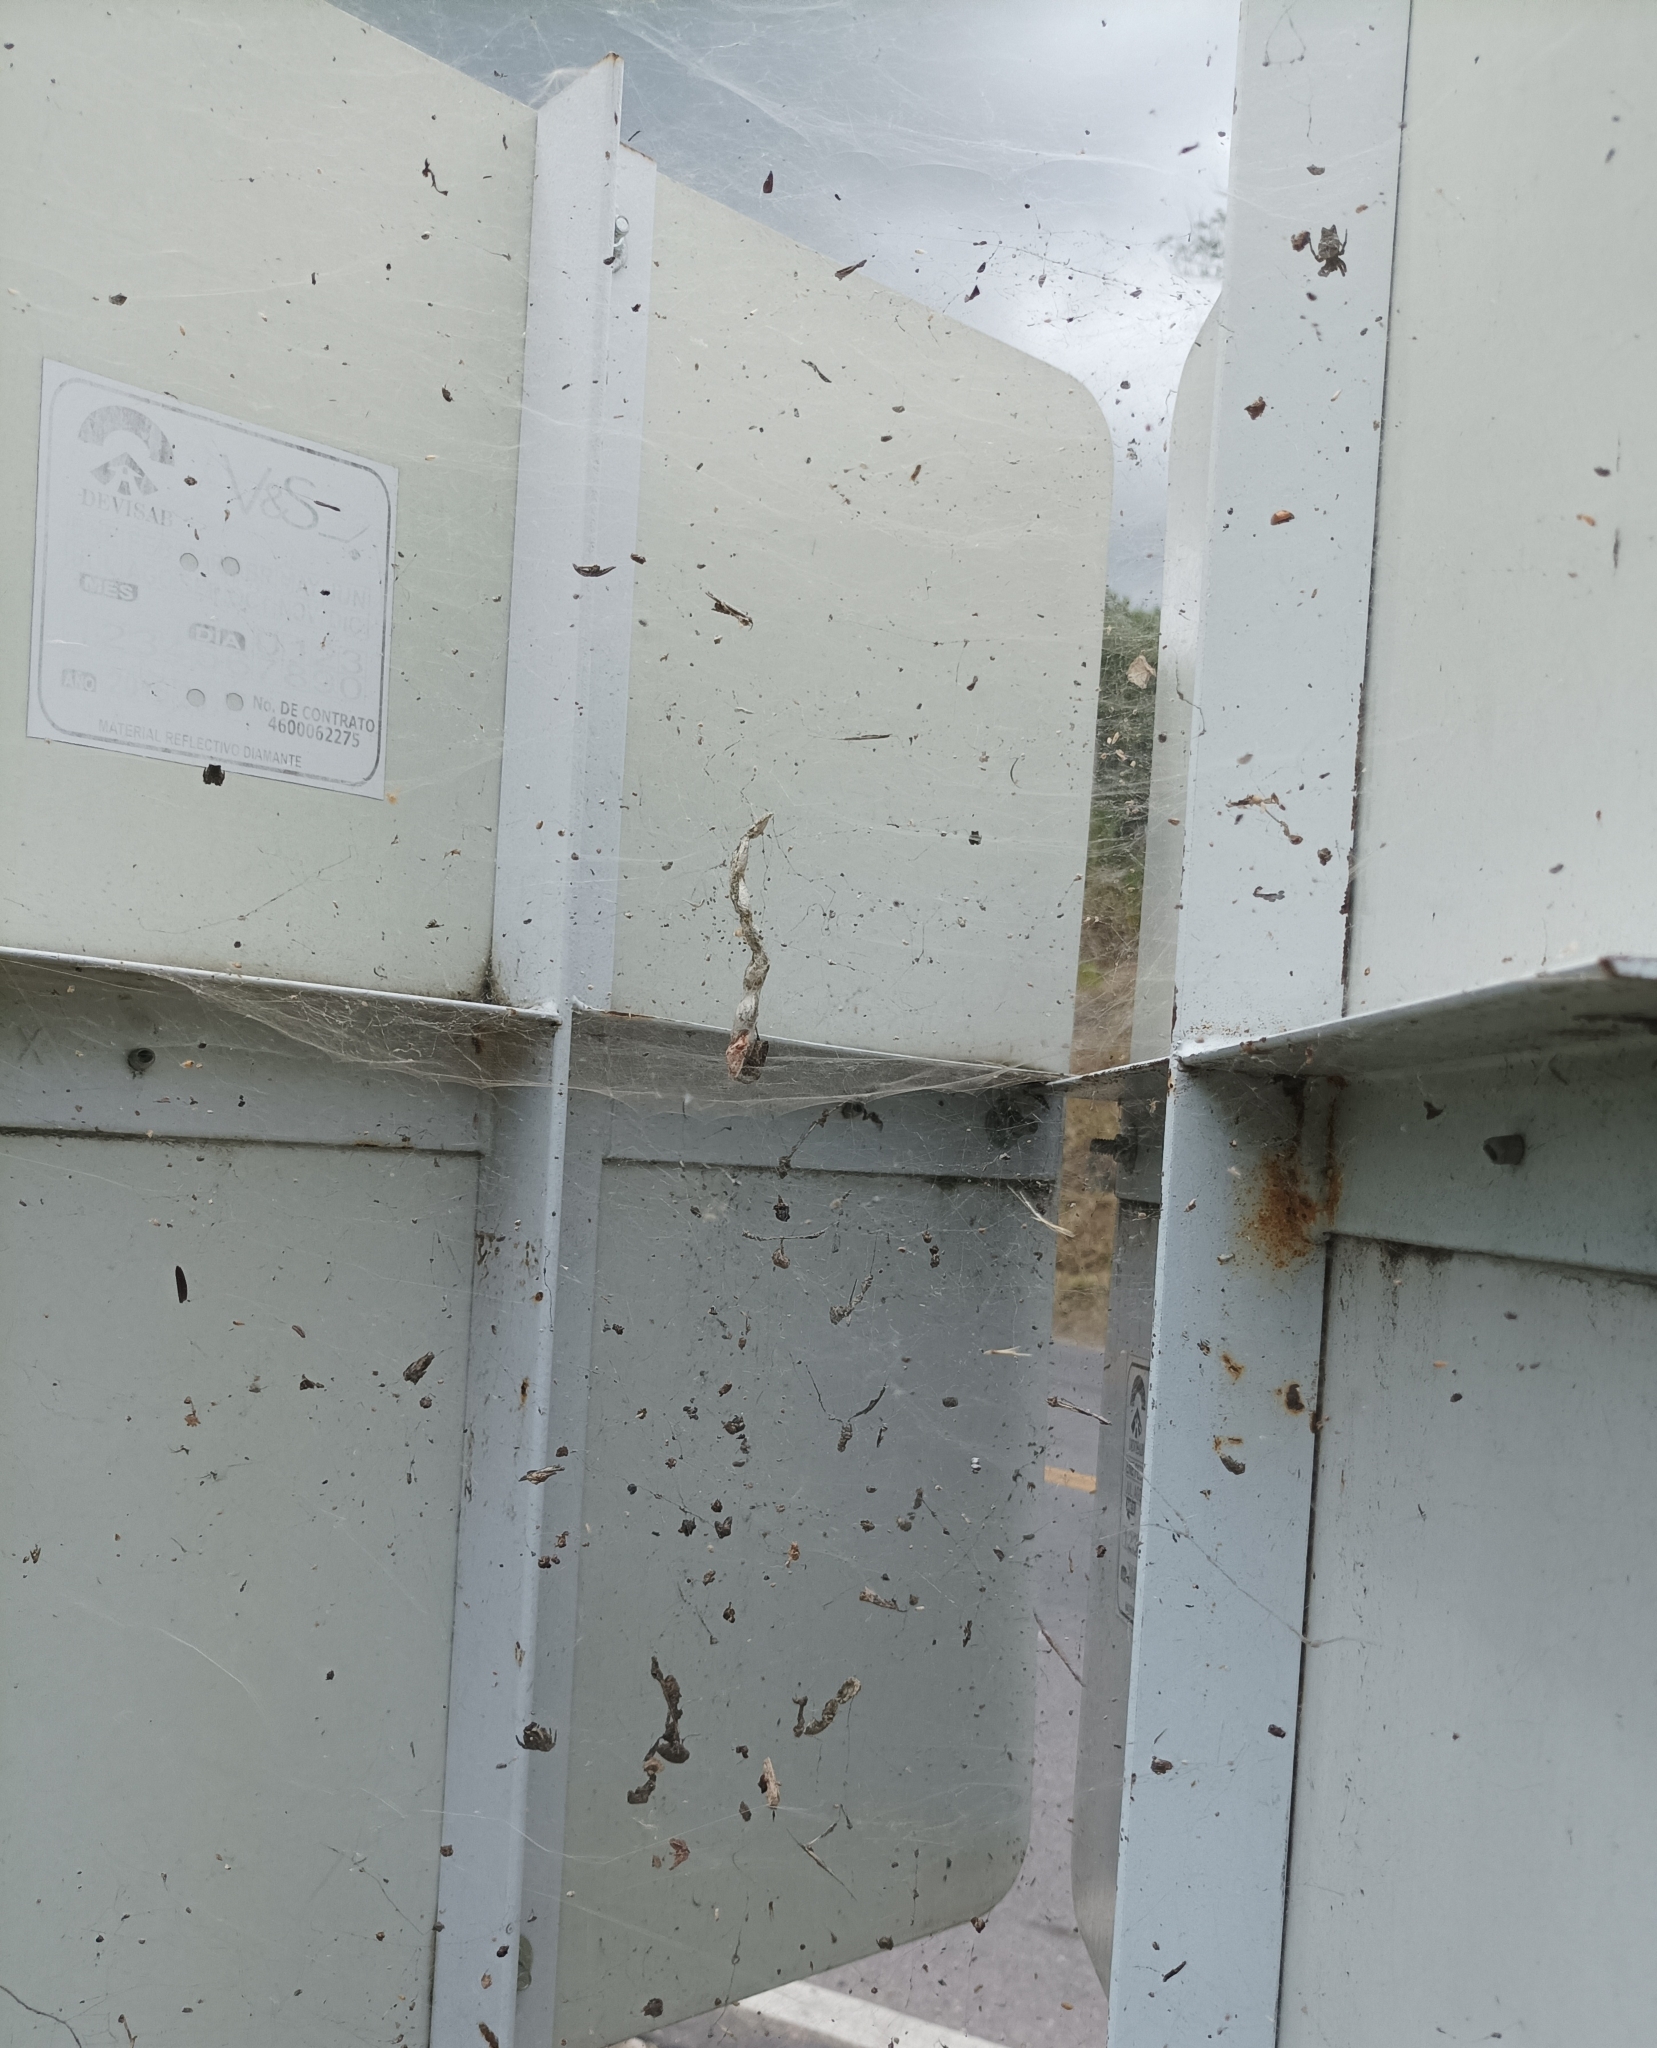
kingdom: Animalia
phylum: Arthropoda
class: Arachnida
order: Araneae
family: Araneidae
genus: Cyrtophora
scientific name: Cyrtophora citricola
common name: Orb weavers
